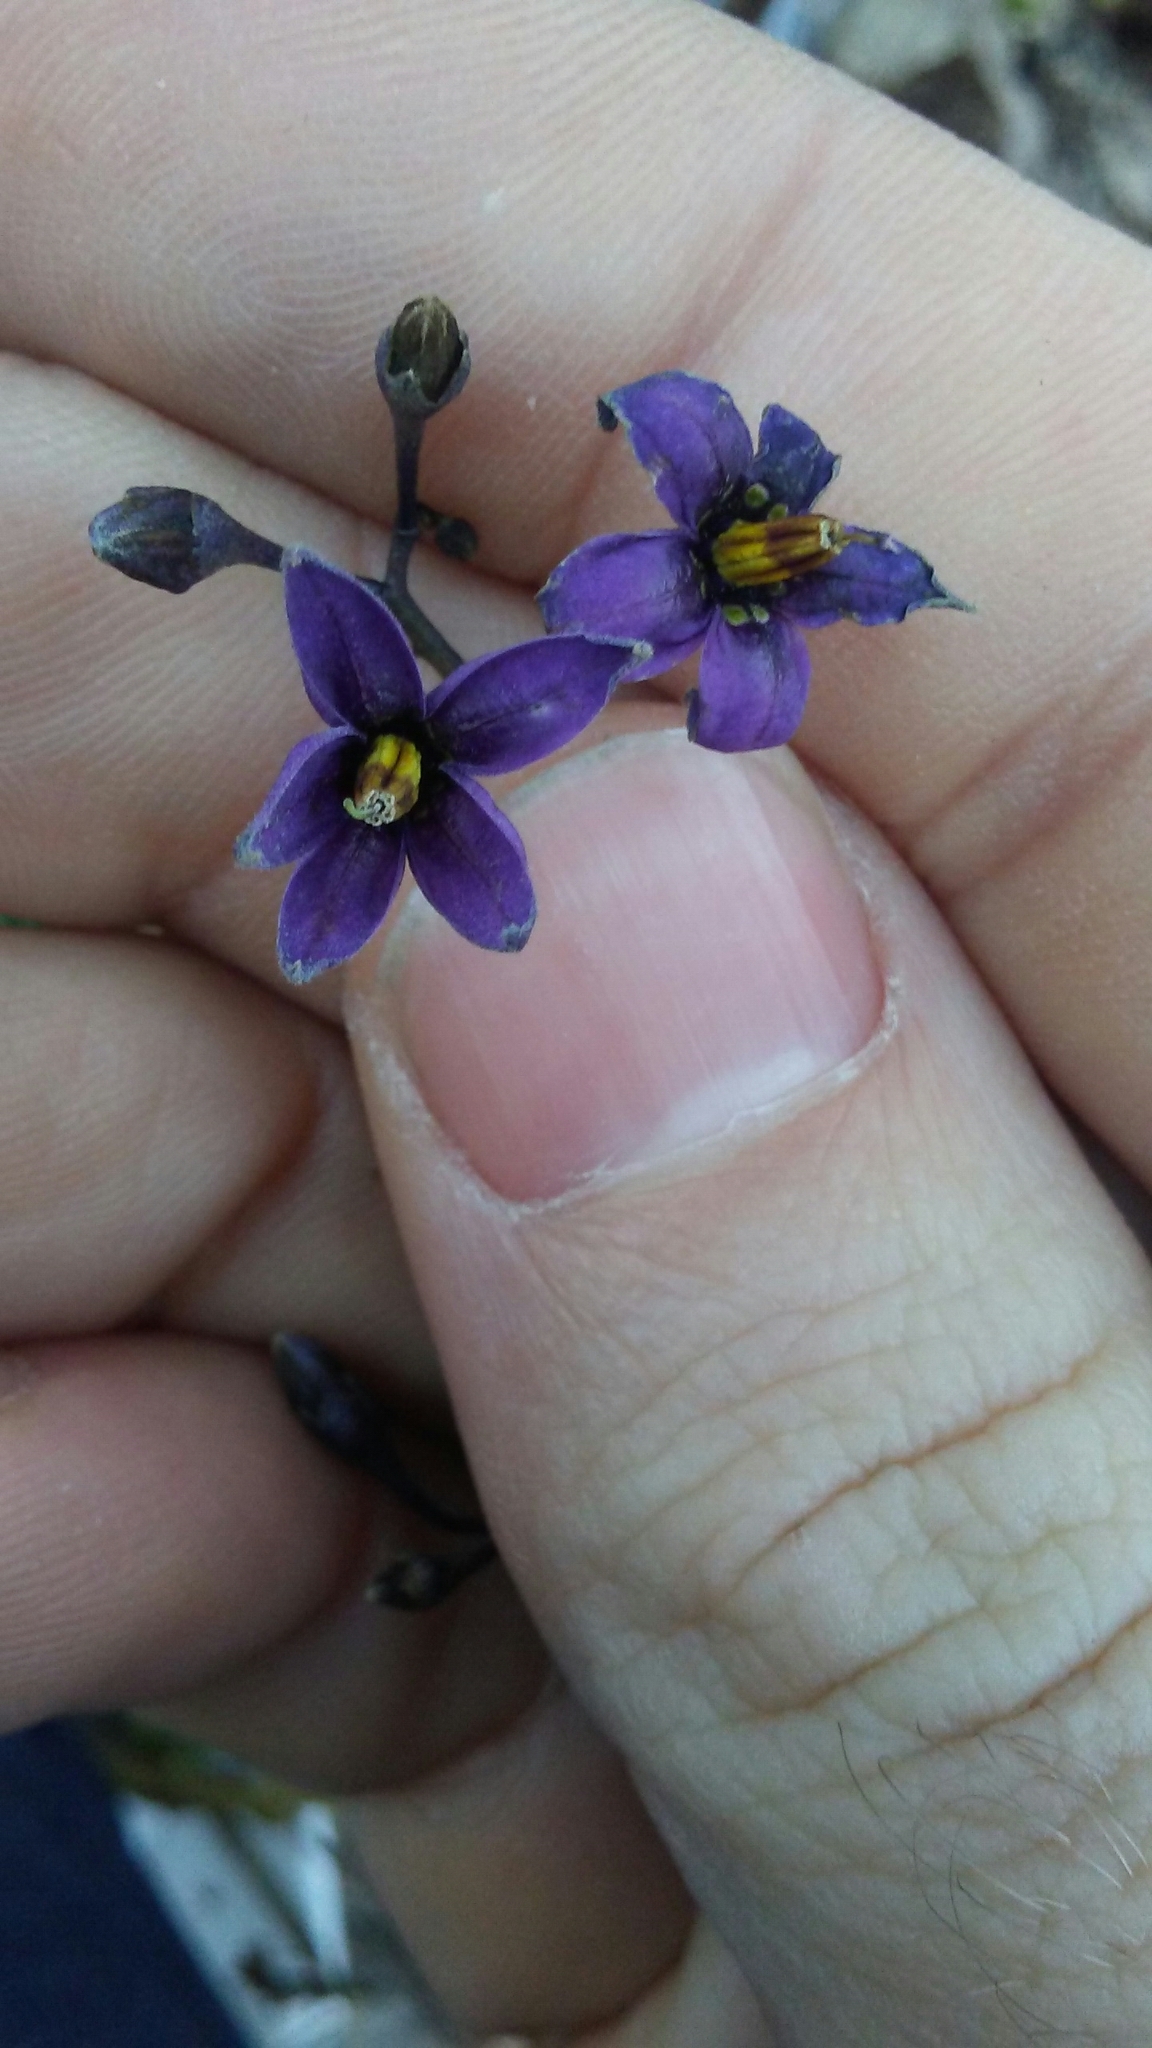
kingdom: Plantae
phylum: Tracheophyta
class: Magnoliopsida
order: Solanales
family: Solanaceae
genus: Solanum
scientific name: Solanum dulcamara
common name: Climbing nightshade
